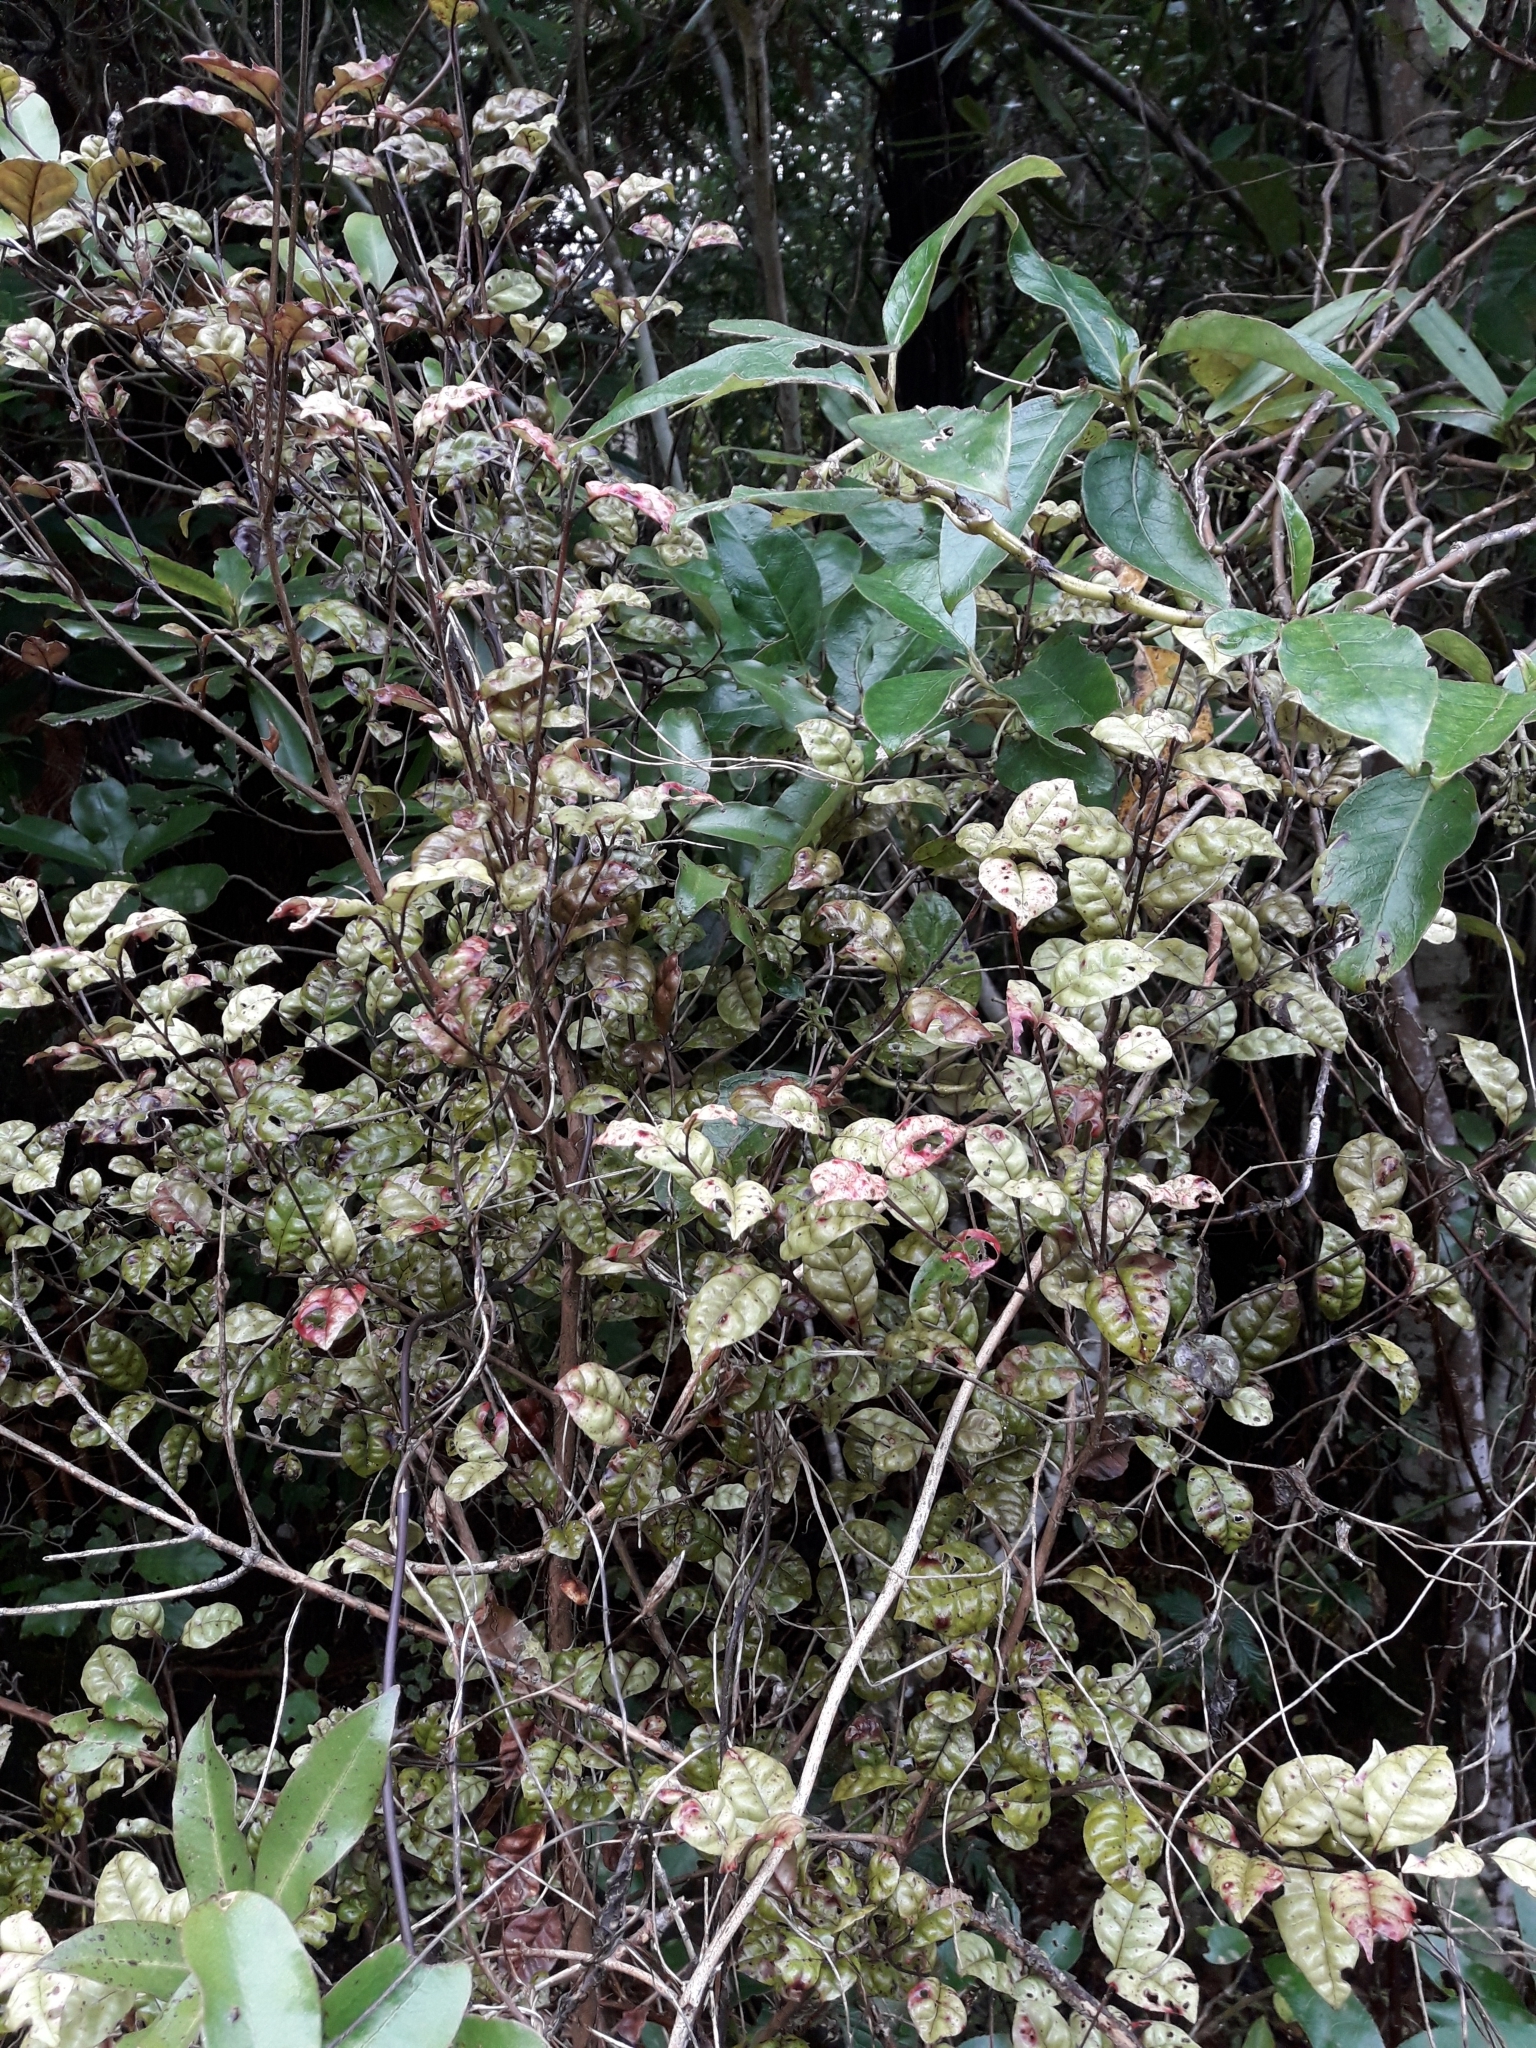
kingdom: Plantae
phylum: Tracheophyta
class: Magnoliopsida
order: Myrtales
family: Myrtaceae
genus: Lophomyrtus
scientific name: Lophomyrtus bullata
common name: Rama rama
